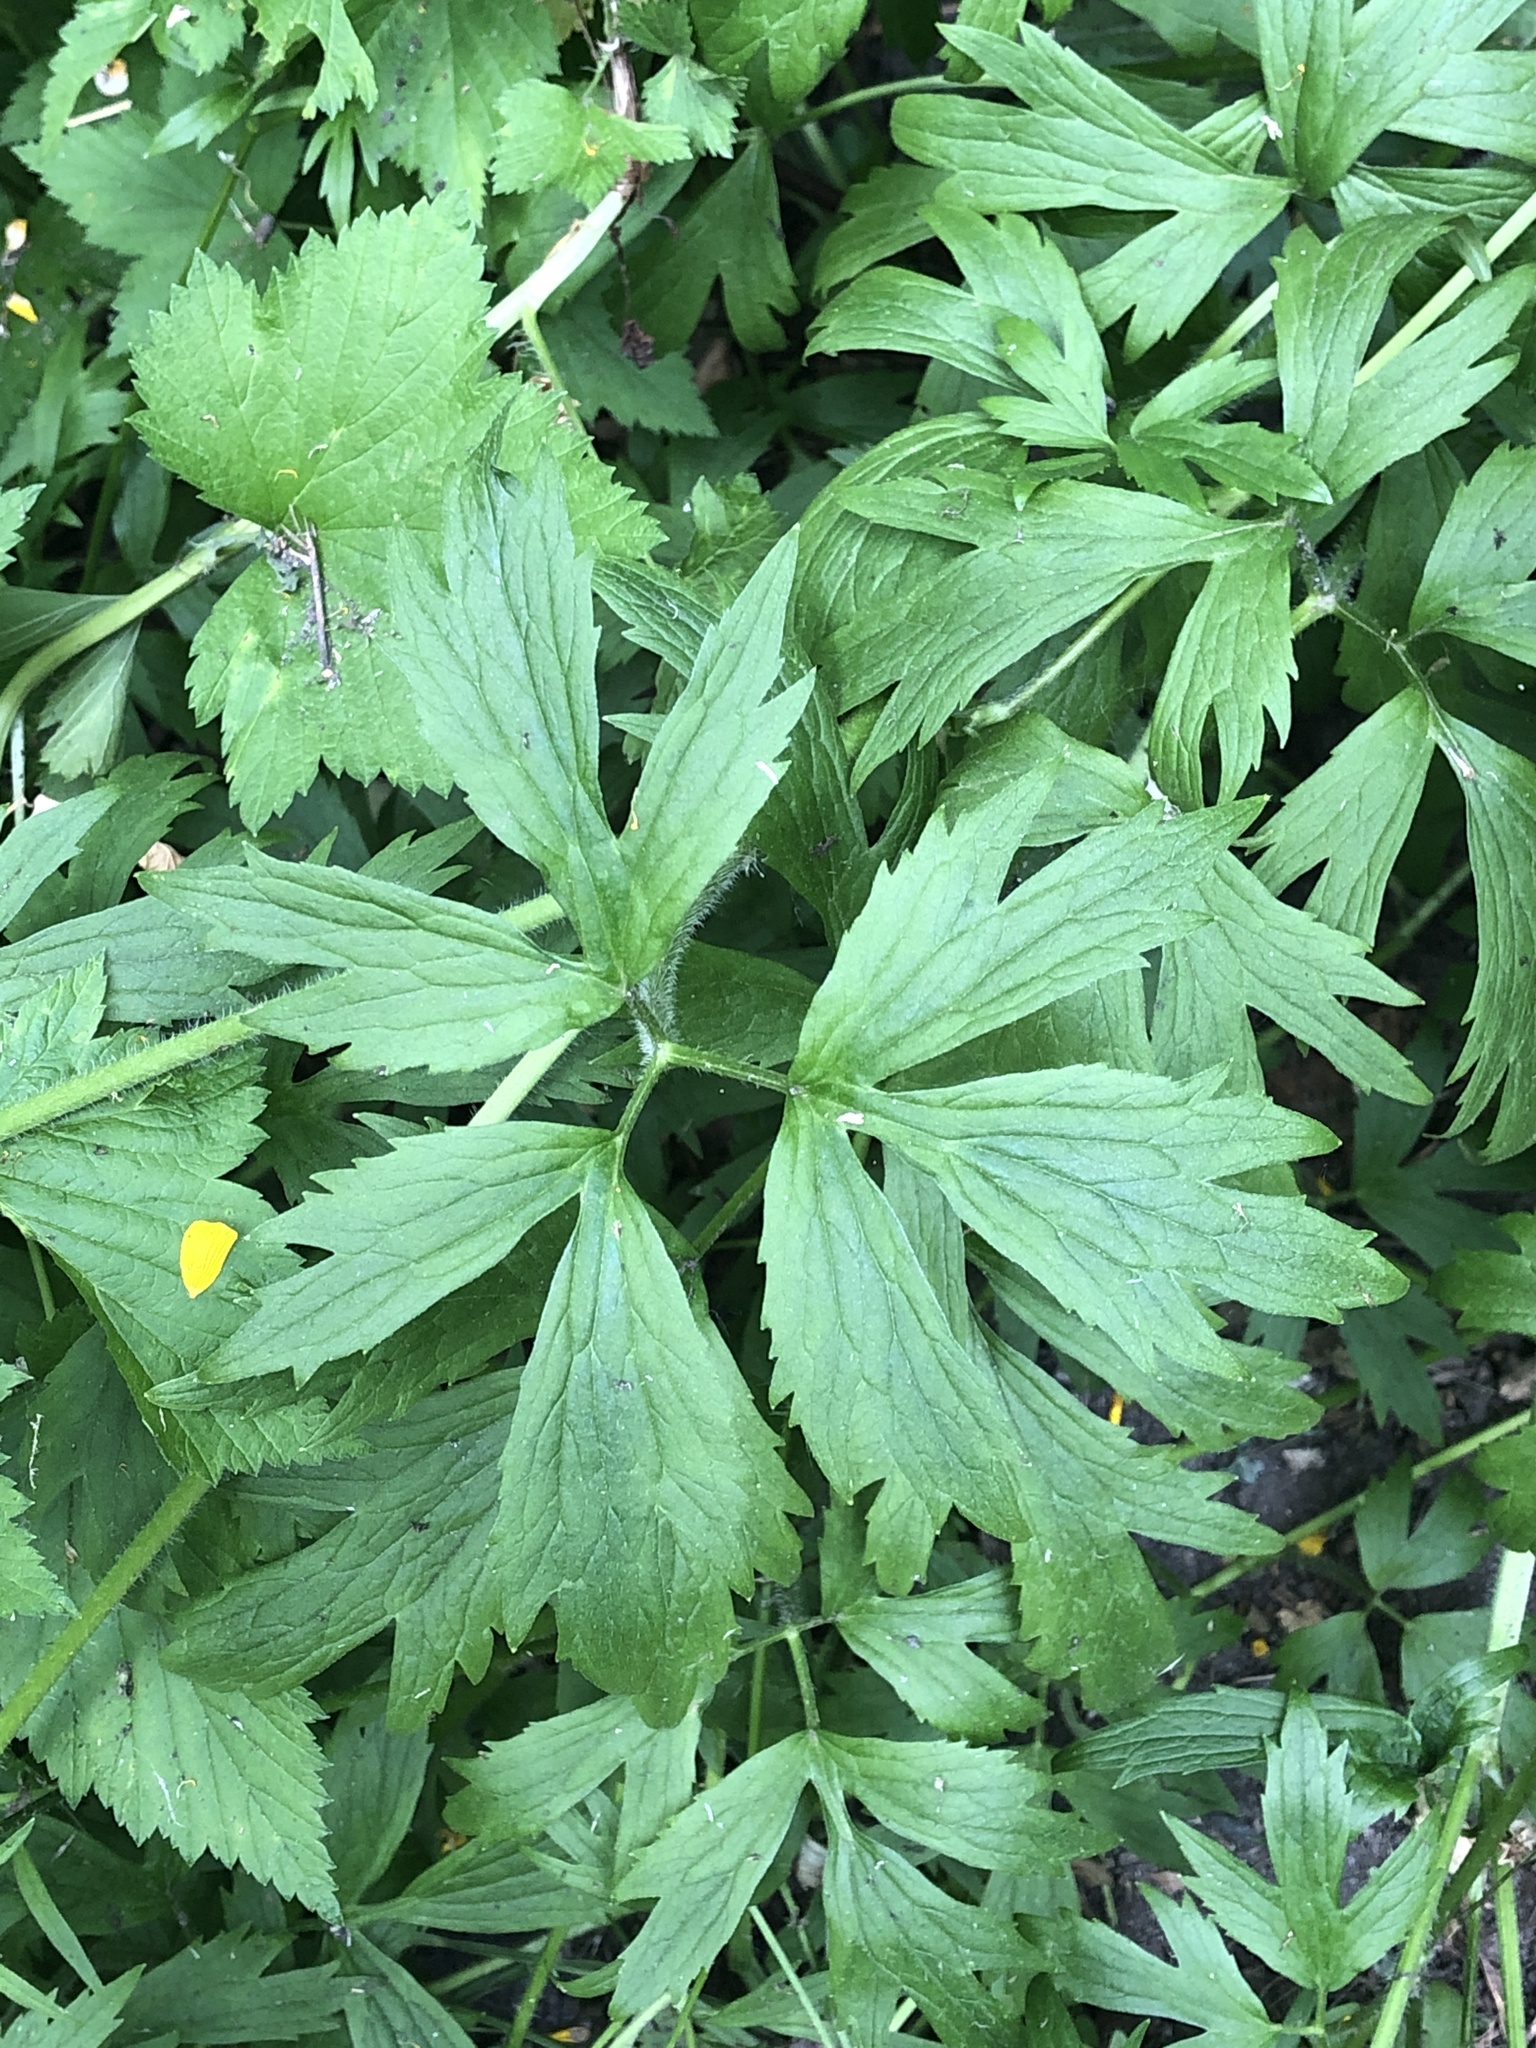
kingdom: Plantae
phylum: Tracheophyta
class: Magnoliopsida
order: Ranunculales
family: Ranunculaceae
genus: Ranunculus
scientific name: Ranunculus hispidus
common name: Bristly buttercup
